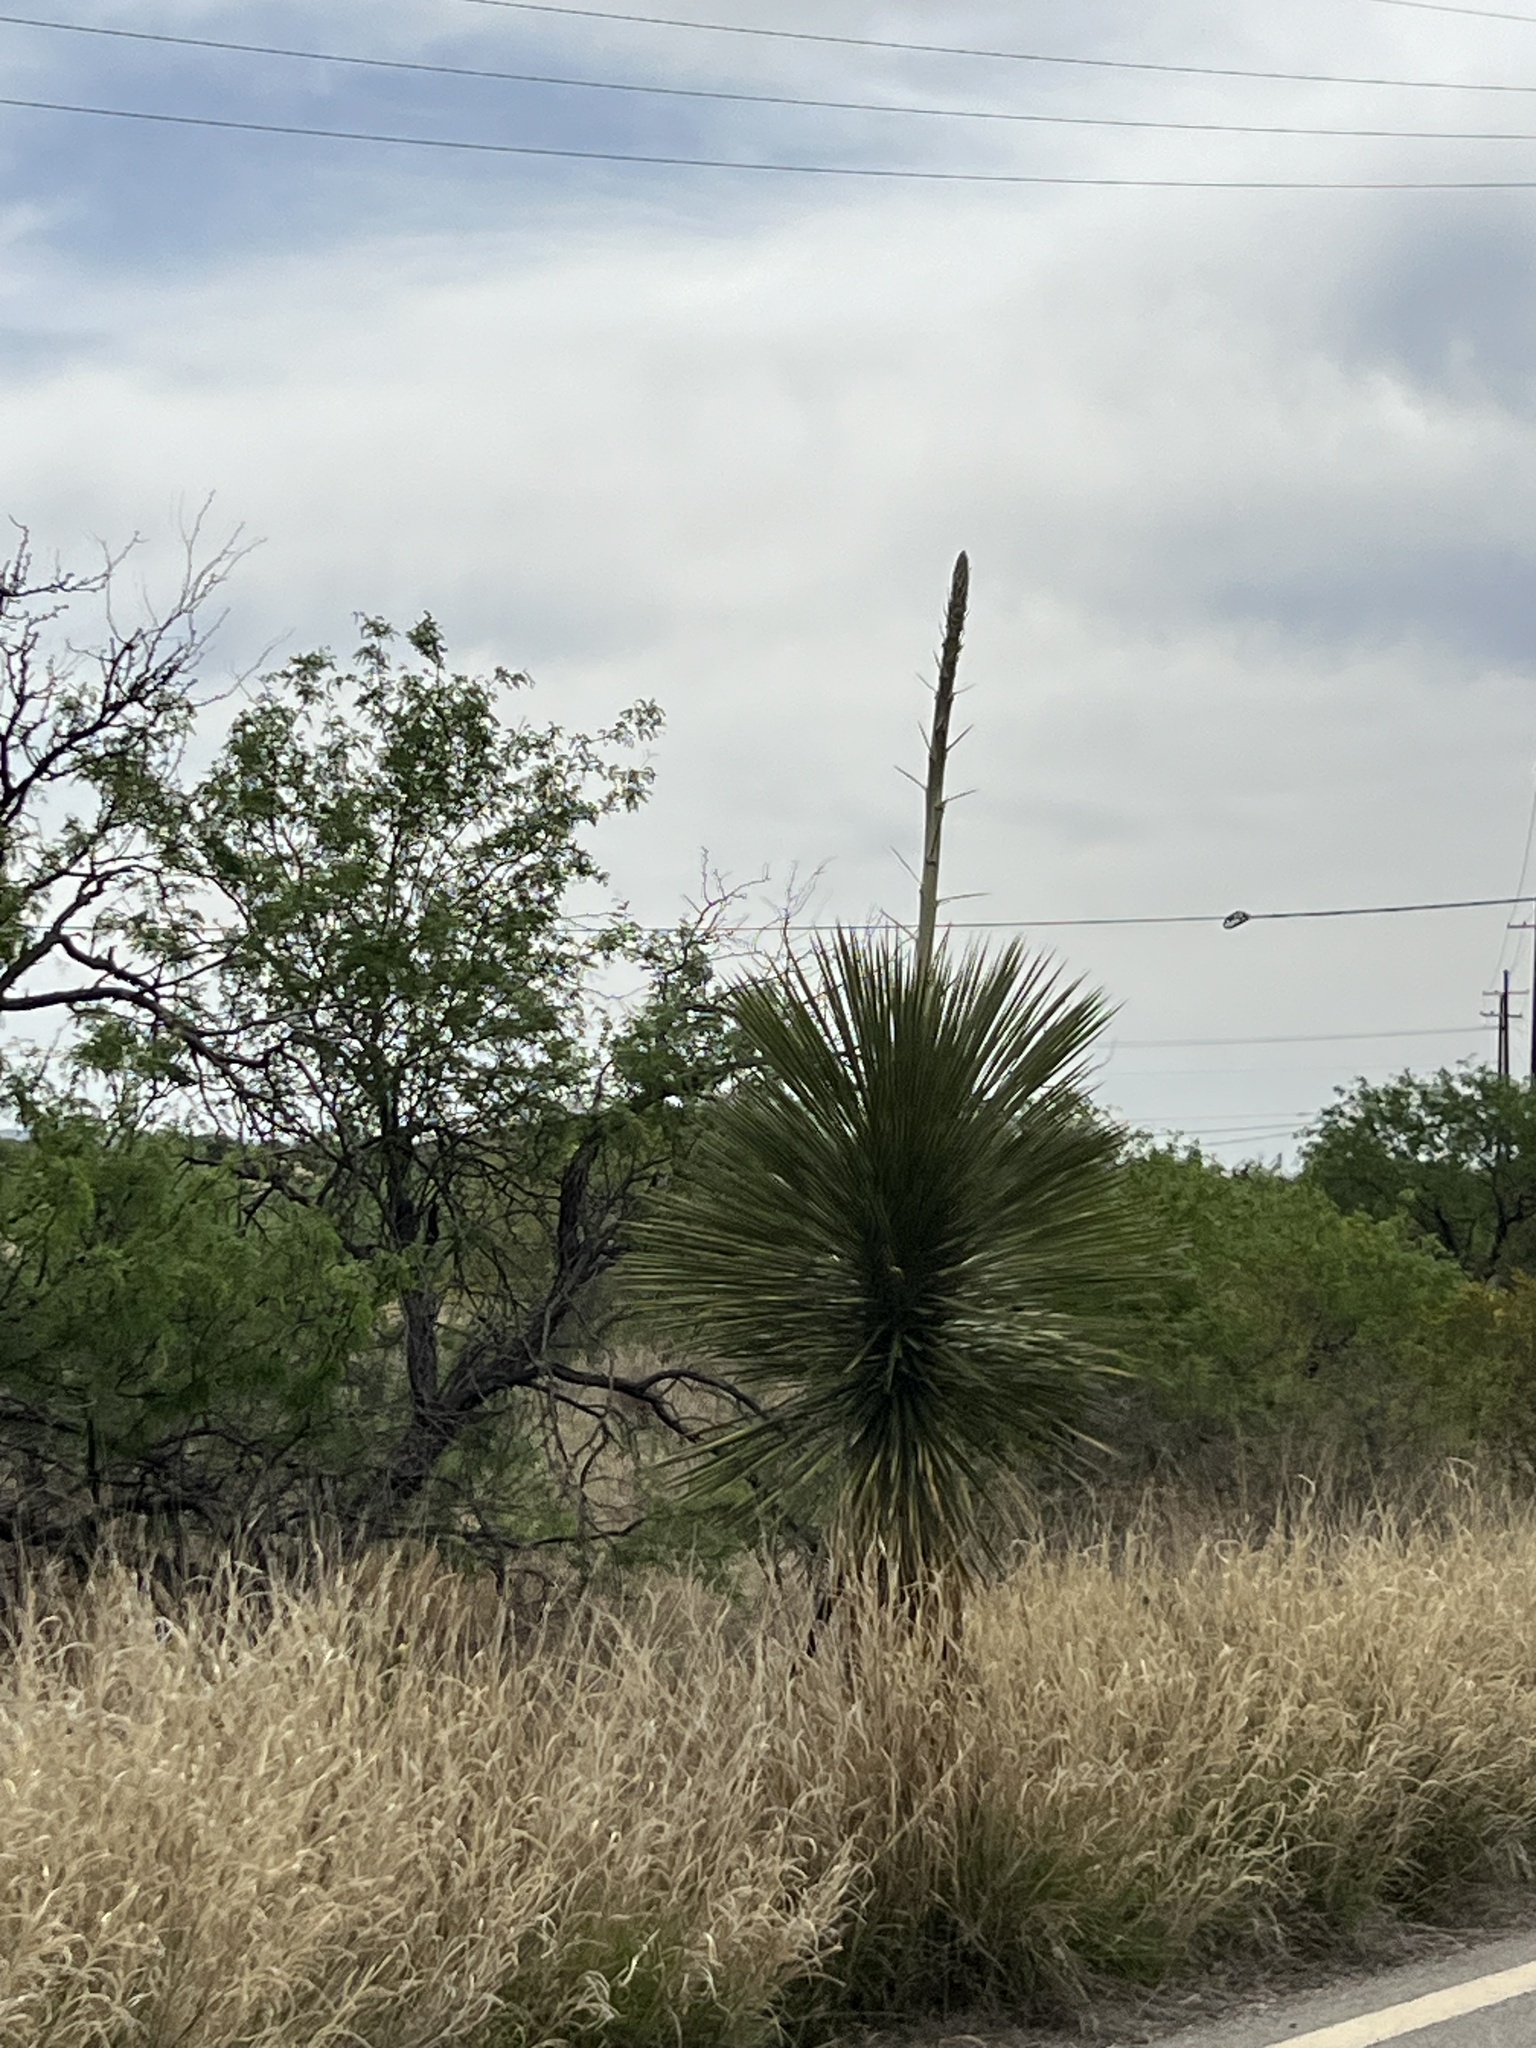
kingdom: Plantae
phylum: Tracheophyta
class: Liliopsida
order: Asparagales
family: Asparagaceae
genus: Yucca
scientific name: Yucca elata
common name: Palmella
